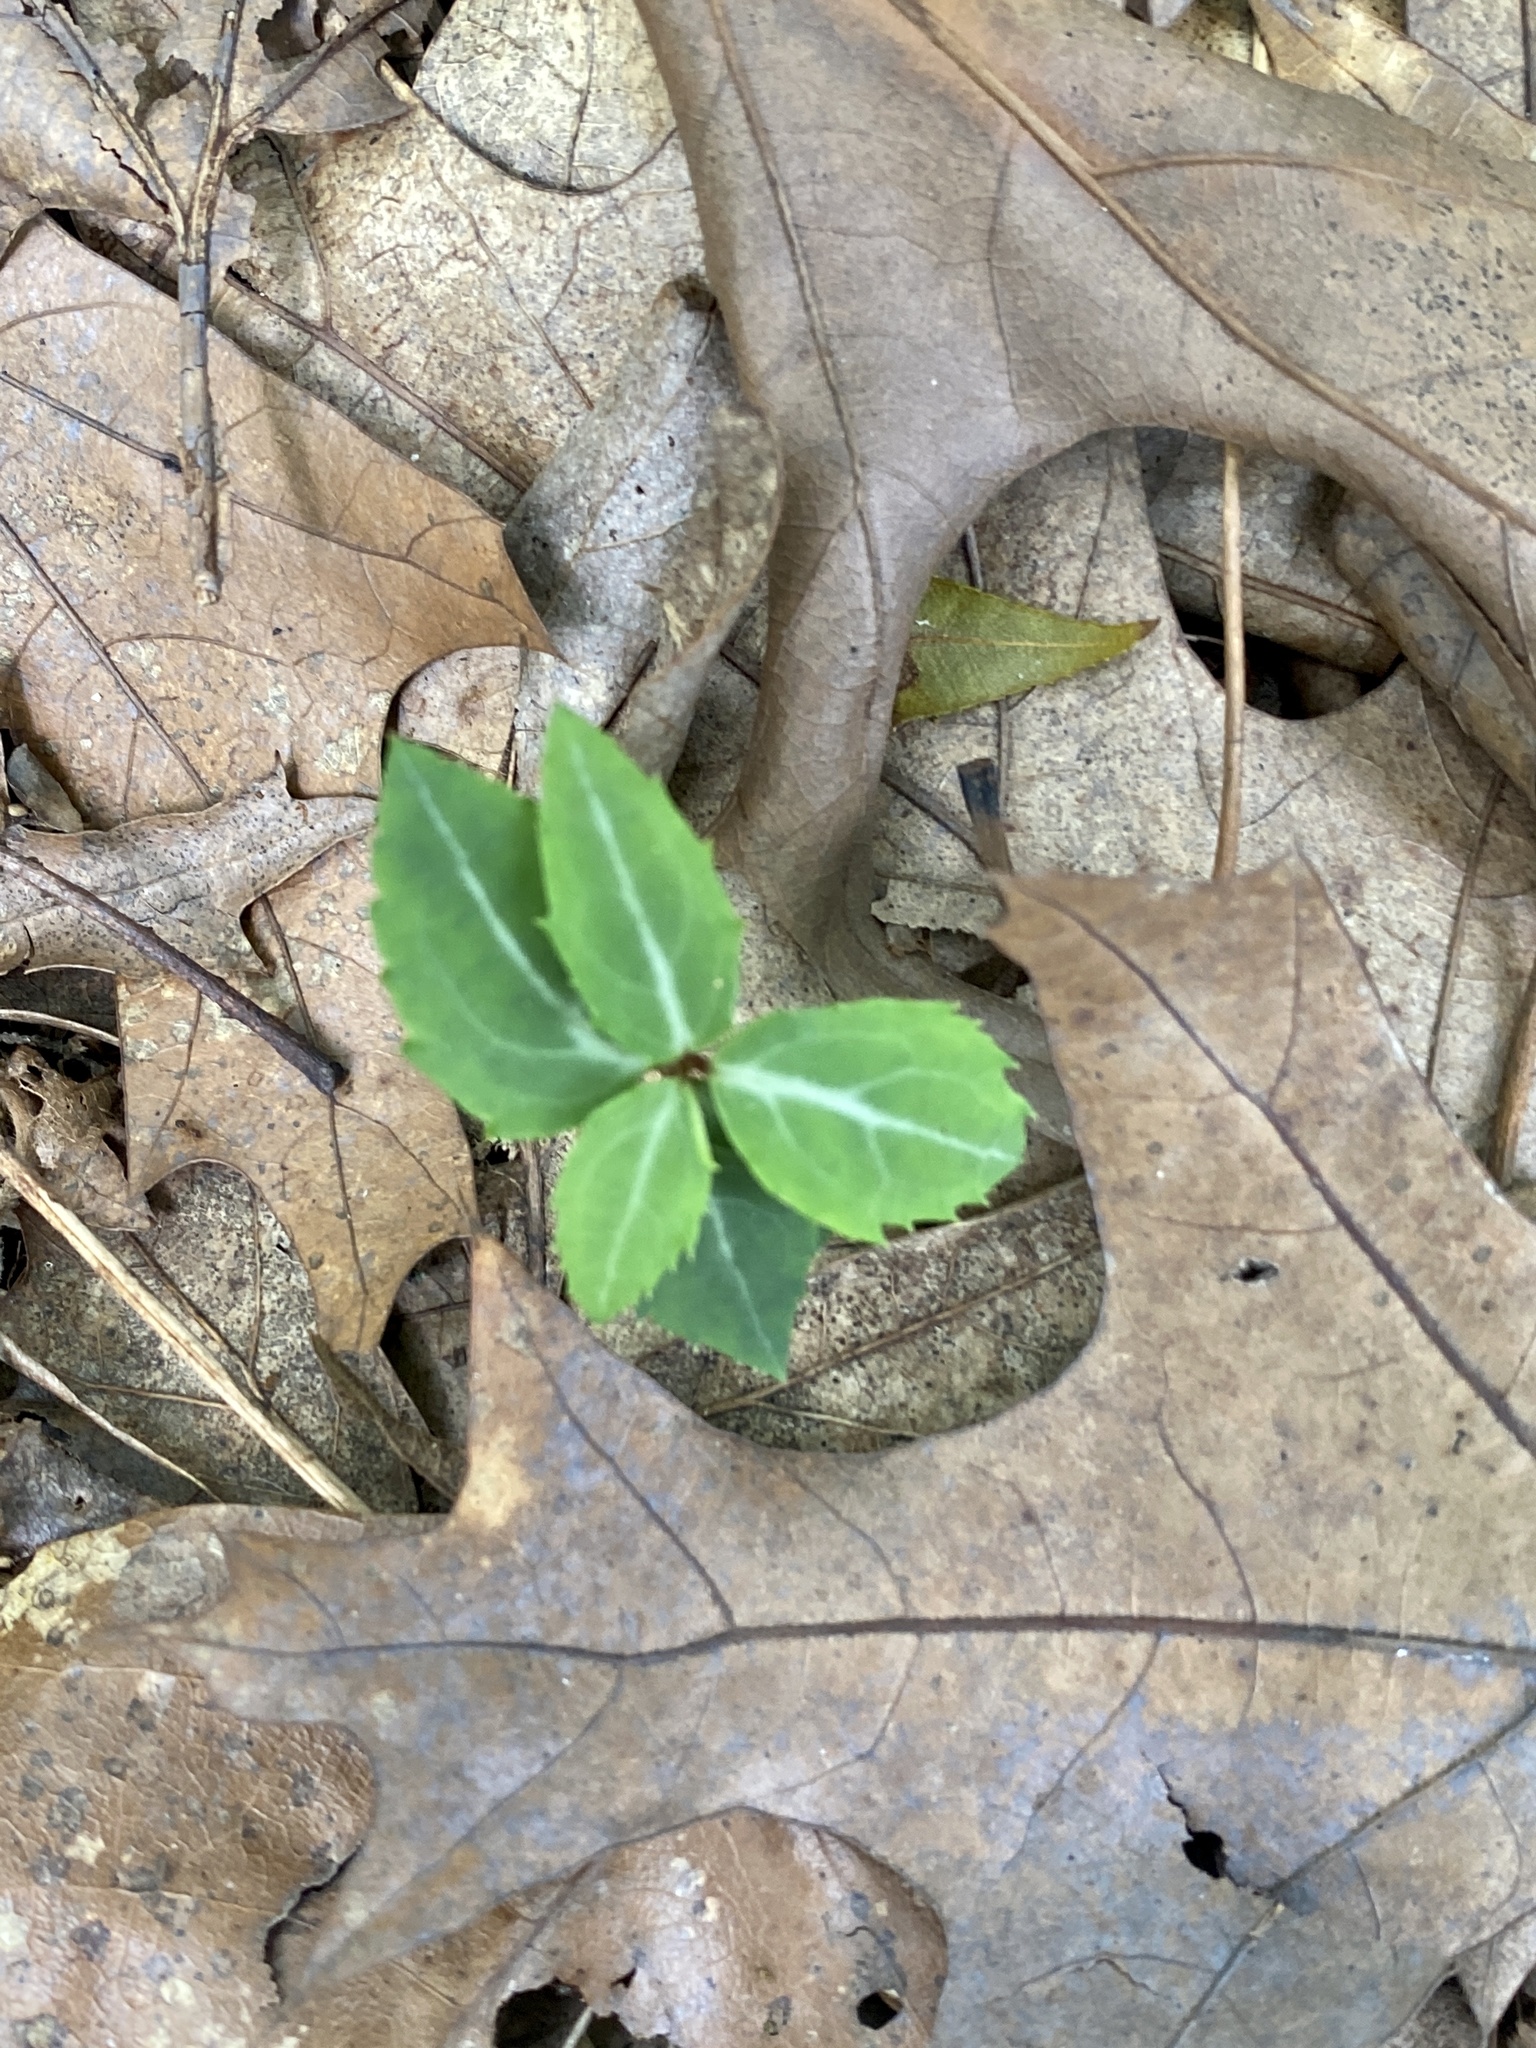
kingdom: Plantae
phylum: Tracheophyta
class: Magnoliopsida
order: Ericales
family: Ericaceae
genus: Chimaphila
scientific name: Chimaphila maculata
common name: Spotted pipsissewa
